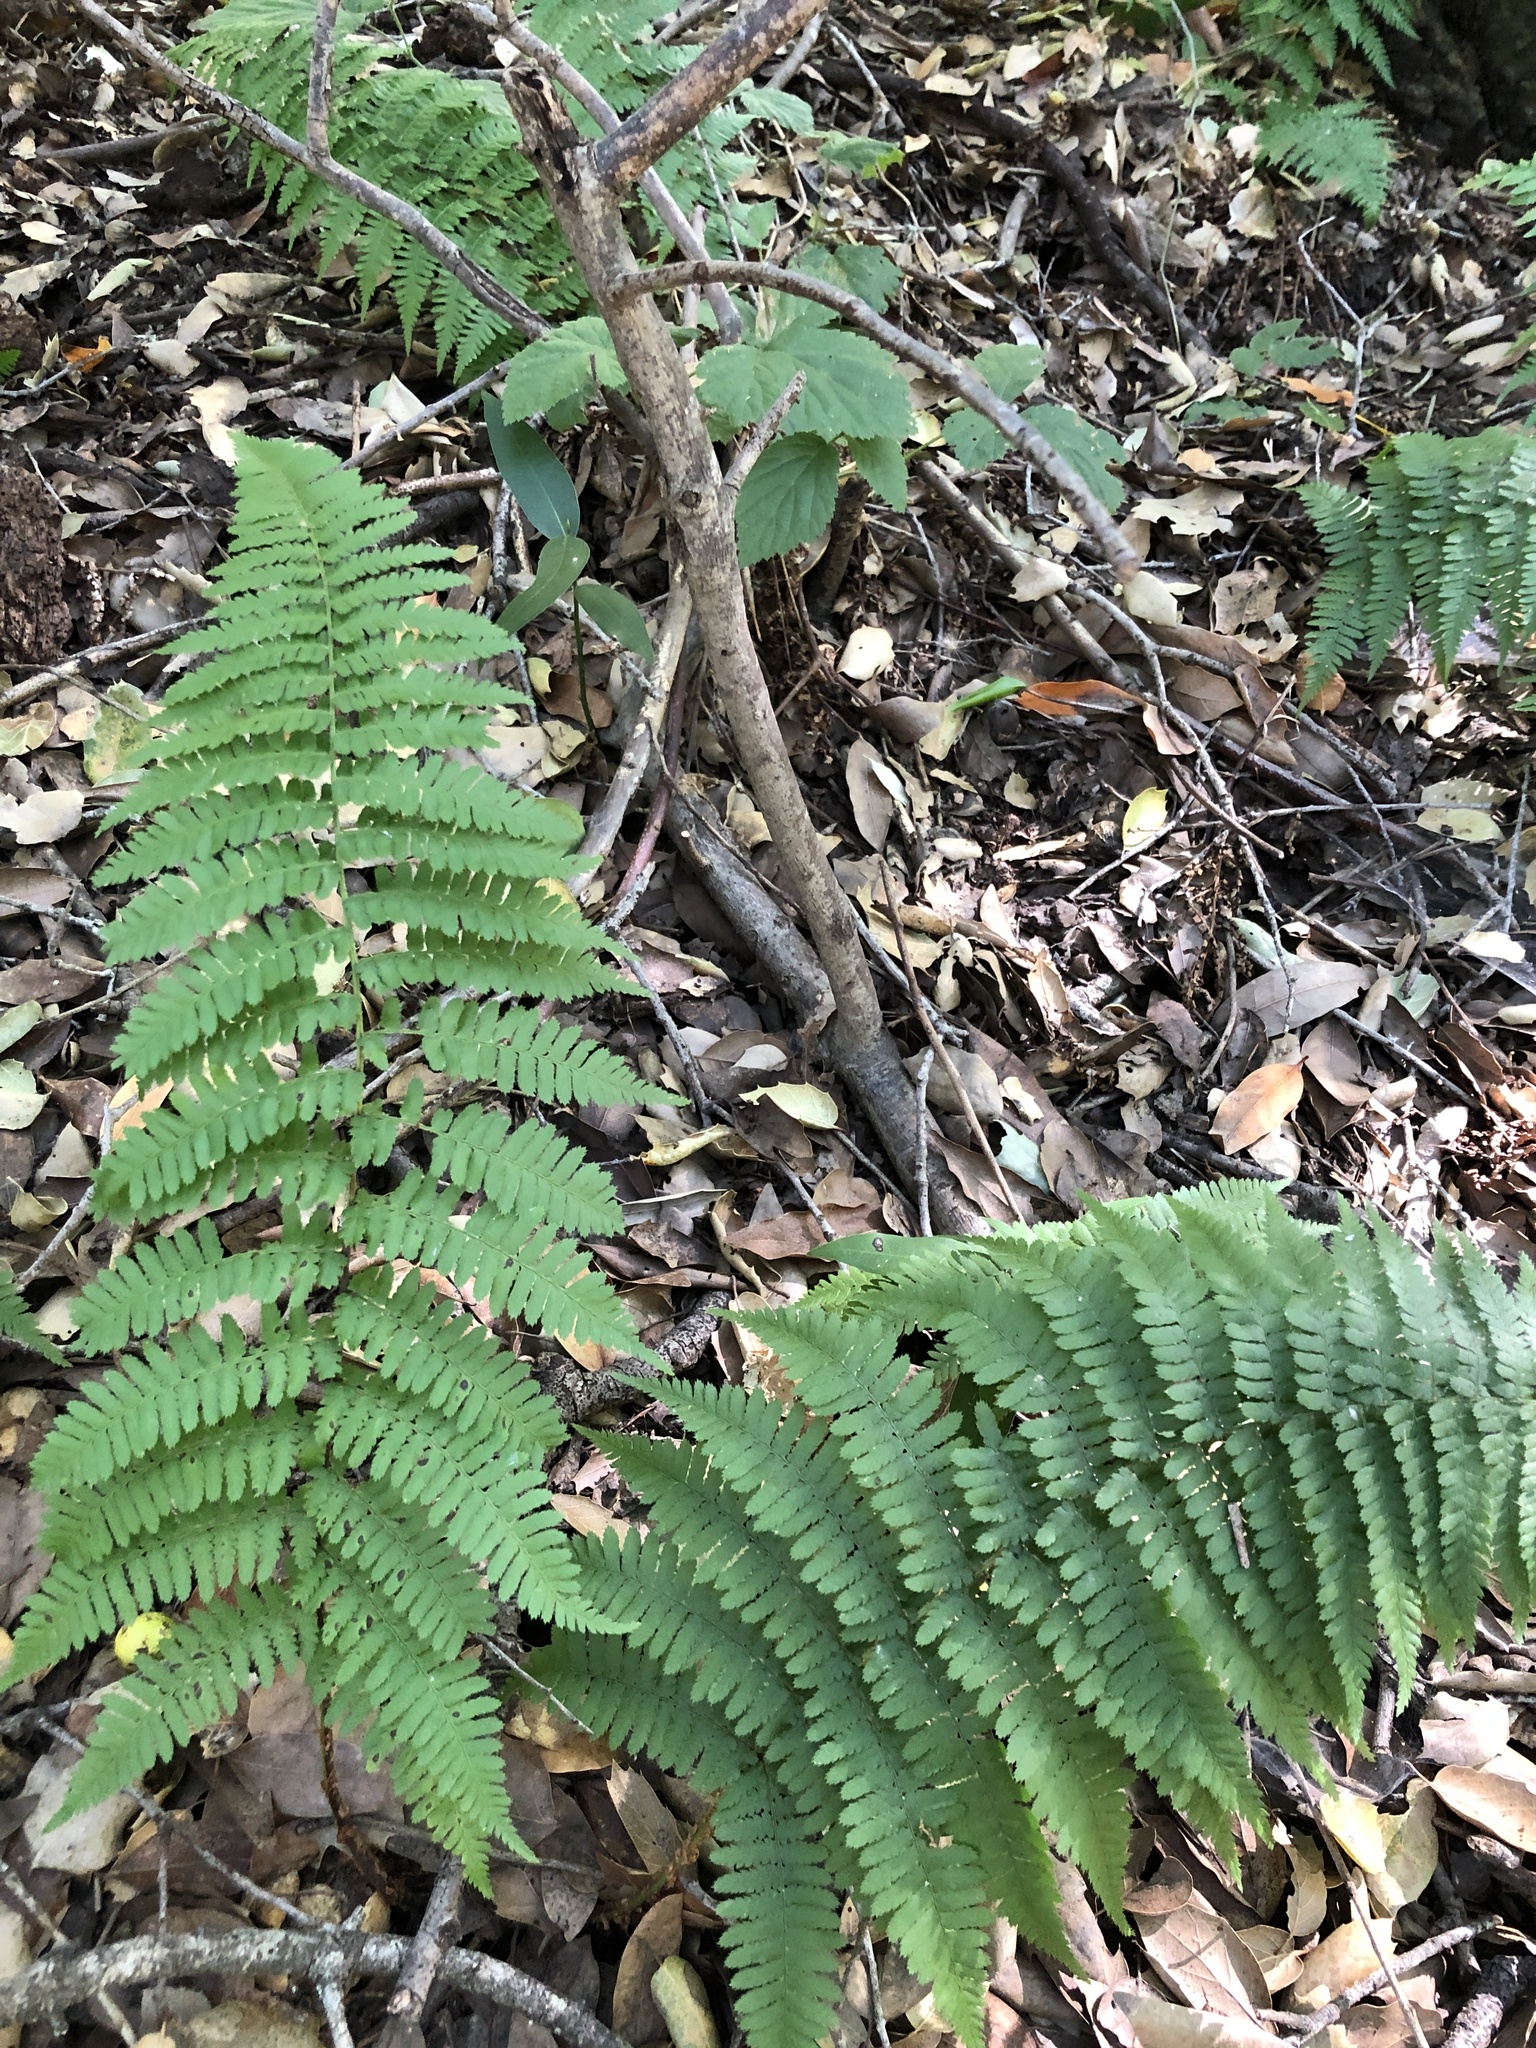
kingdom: Plantae
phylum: Tracheophyta
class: Polypodiopsida
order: Polypodiales
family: Dryopteridaceae
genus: Dryopteris
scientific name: Dryopteris arguta
